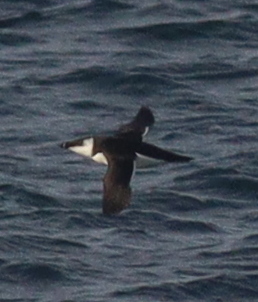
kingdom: Animalia
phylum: Chordata
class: Aves
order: Charadriiformes
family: Alcidae
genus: Alca
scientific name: Alca torda
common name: Razorbill
